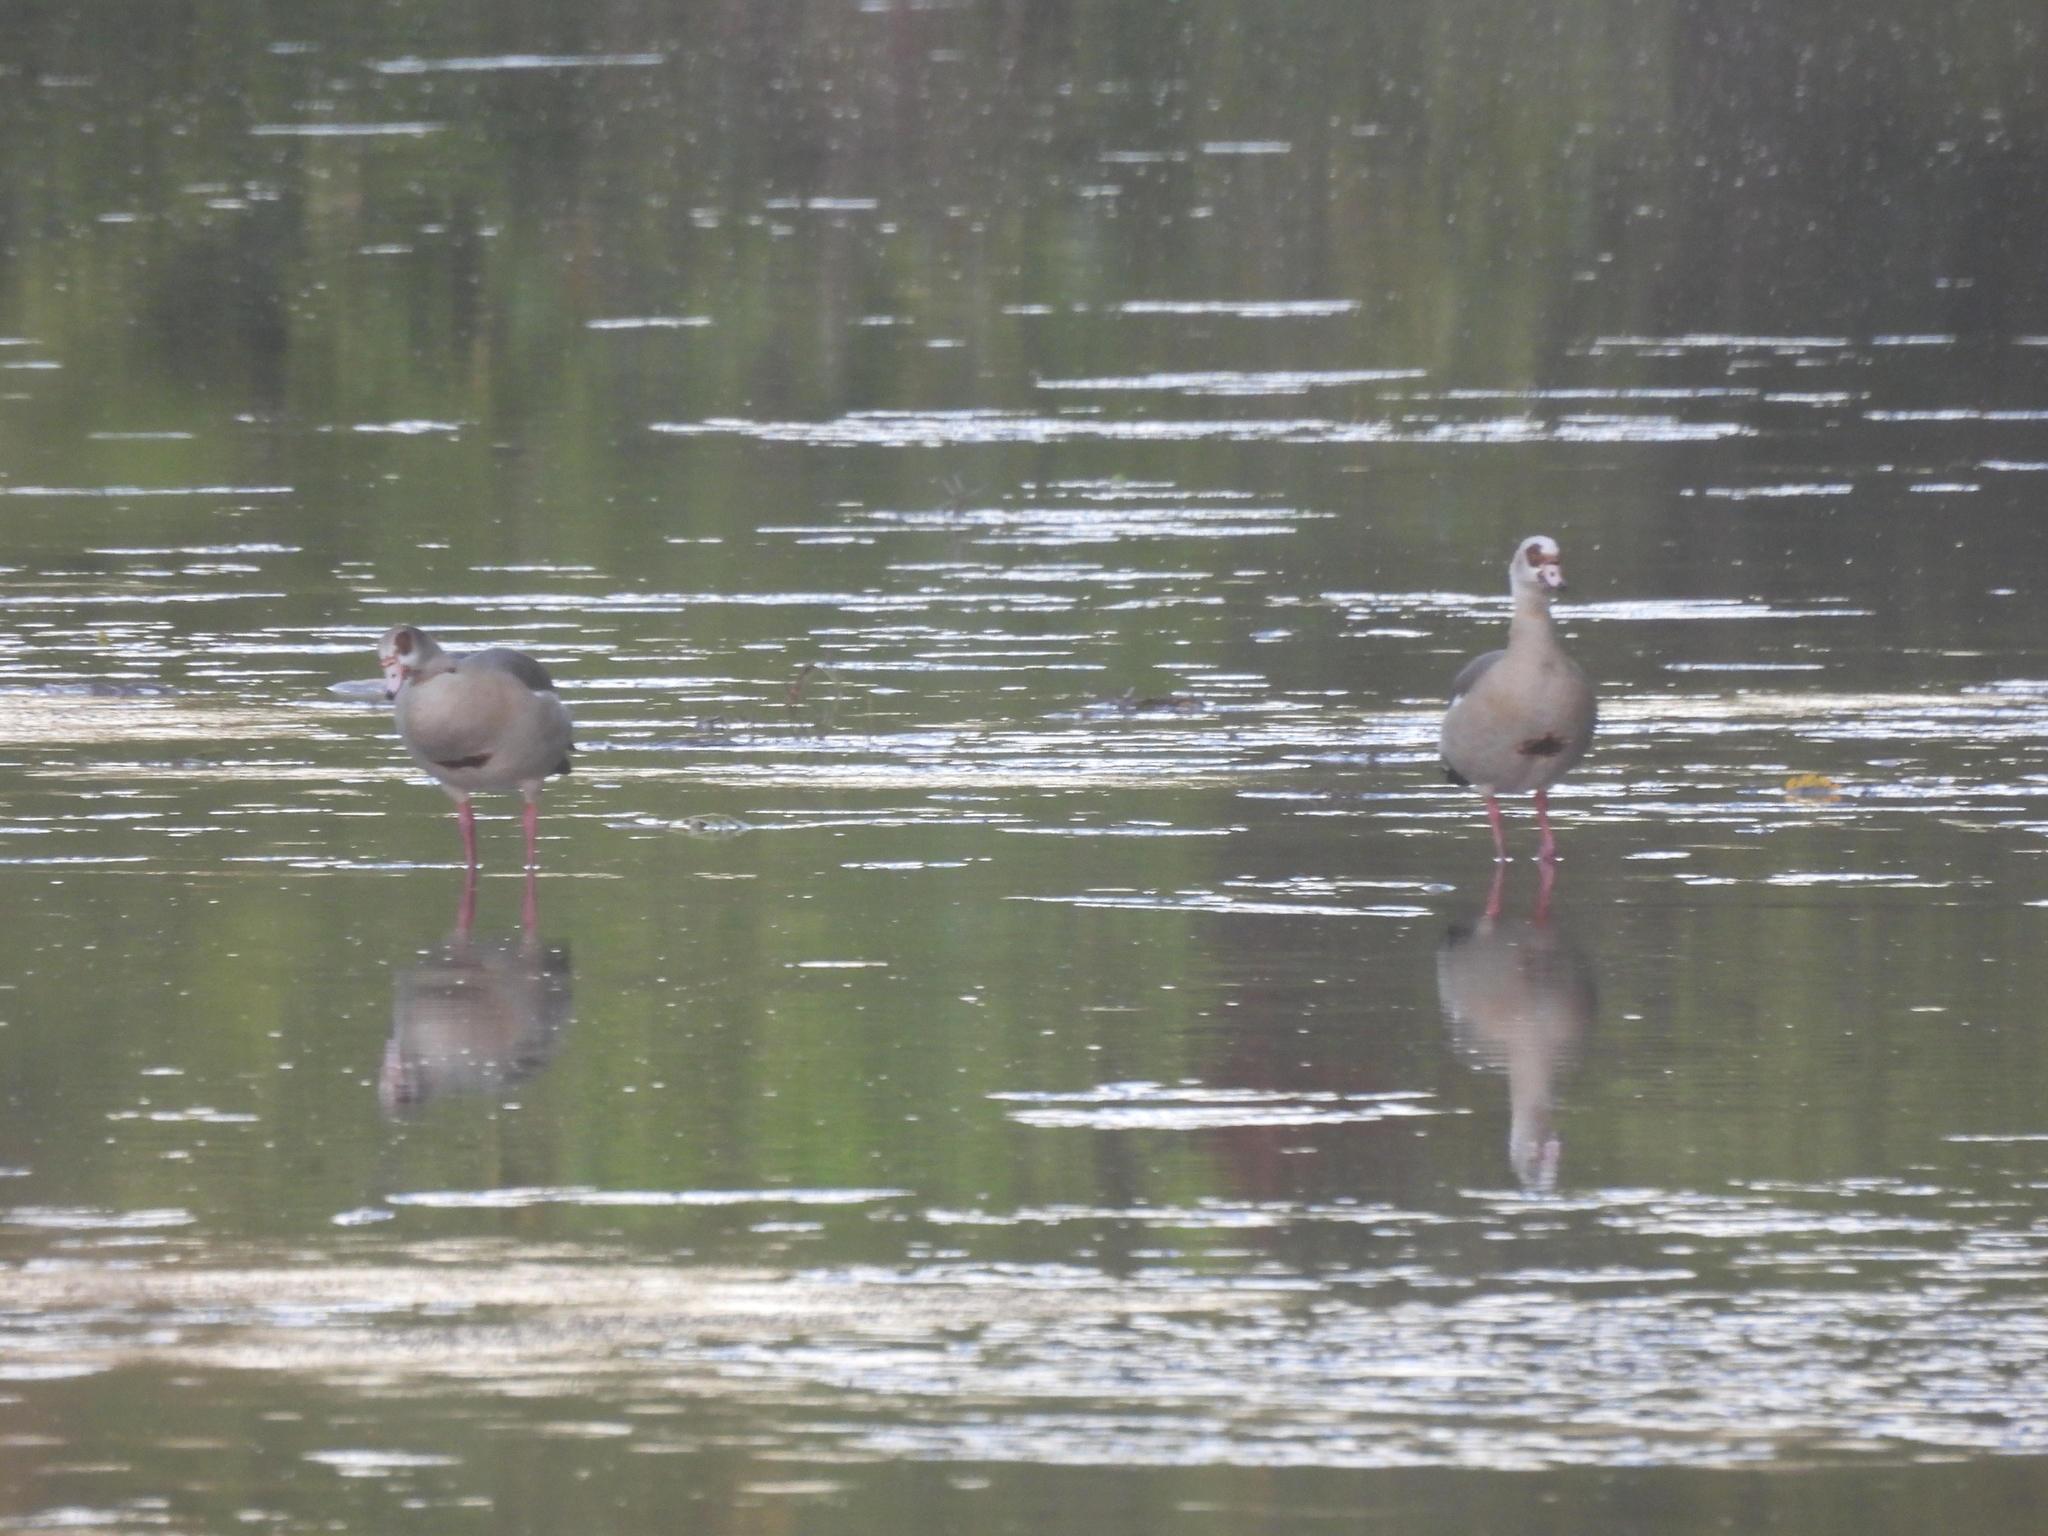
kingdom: Animalia
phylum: Chordata
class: Aves
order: Anseriformes
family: Anatidae
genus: Alopochen
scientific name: Alopochen aegyptiaca
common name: Egyptian goose
